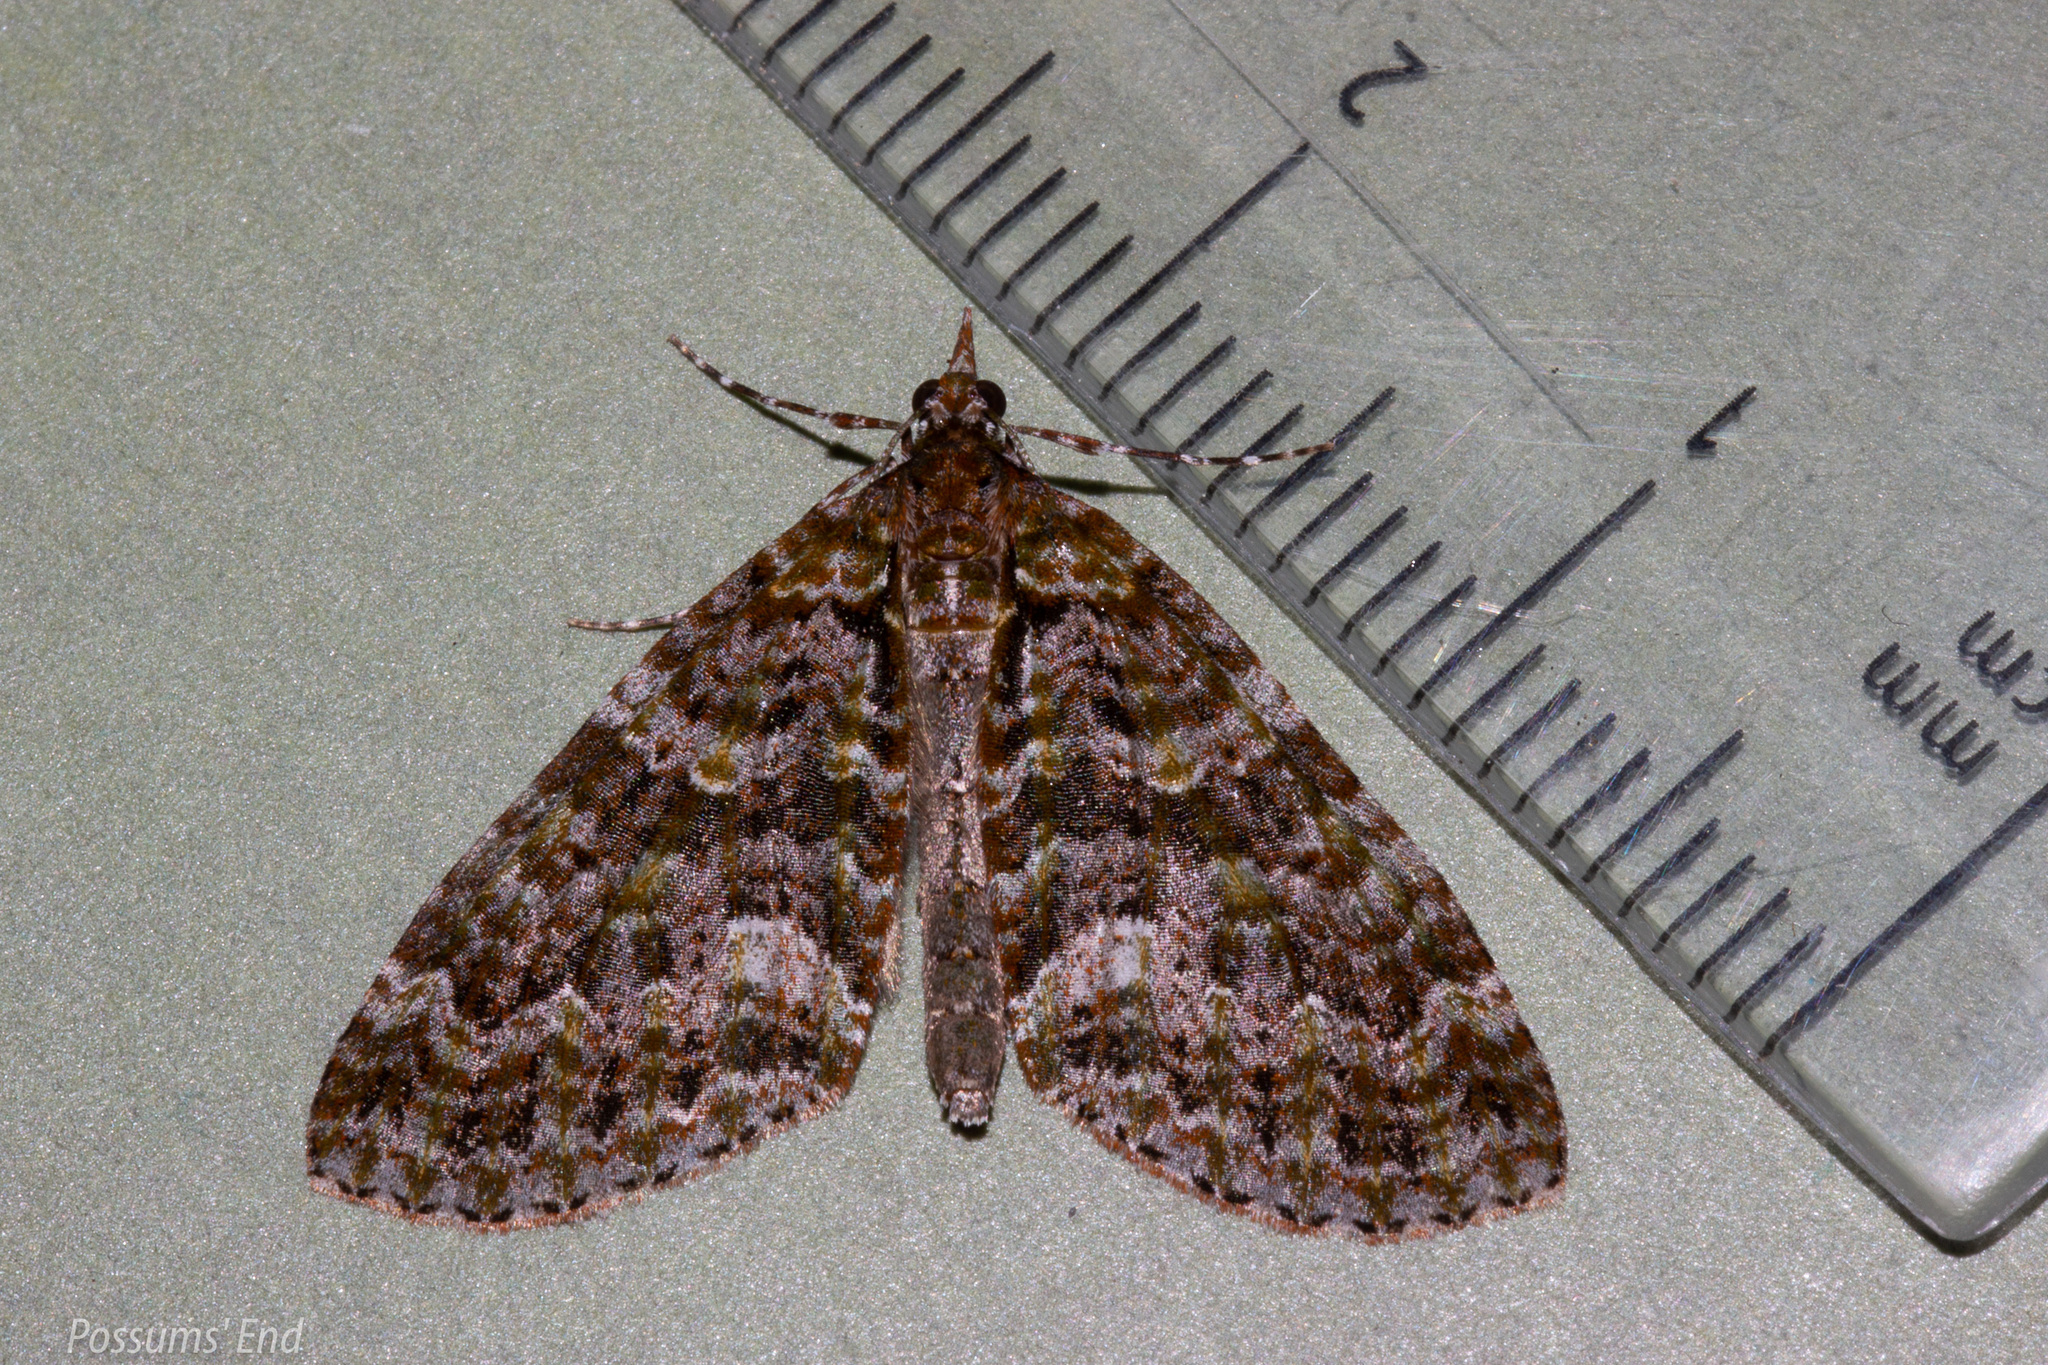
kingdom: Animalia
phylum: Arthropoda
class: Insecta
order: Lepidoptera
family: Geometridae
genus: Tatosoma
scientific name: Tatosoma agrionata
